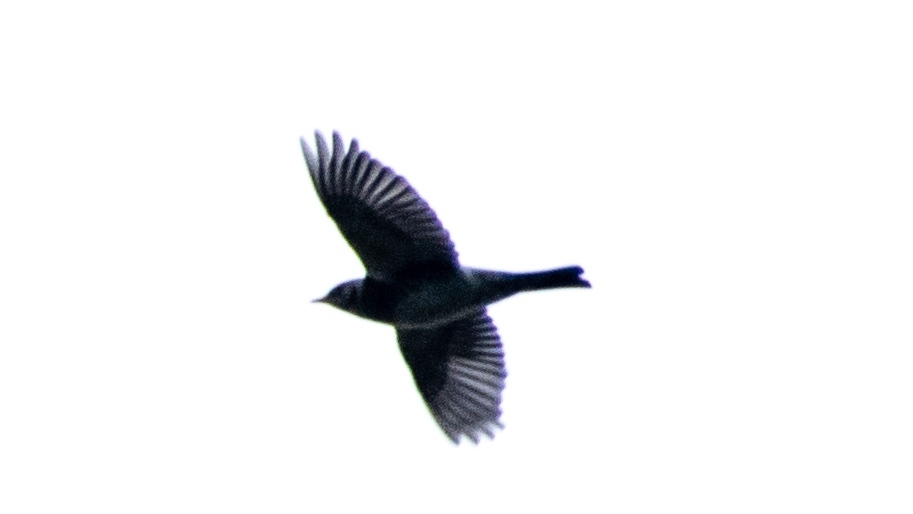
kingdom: Animalia
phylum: Chordata
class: Aves
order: Passeriformes
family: Turdidae
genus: Turdus
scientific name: Turdus pilaris
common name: Fieldfare
